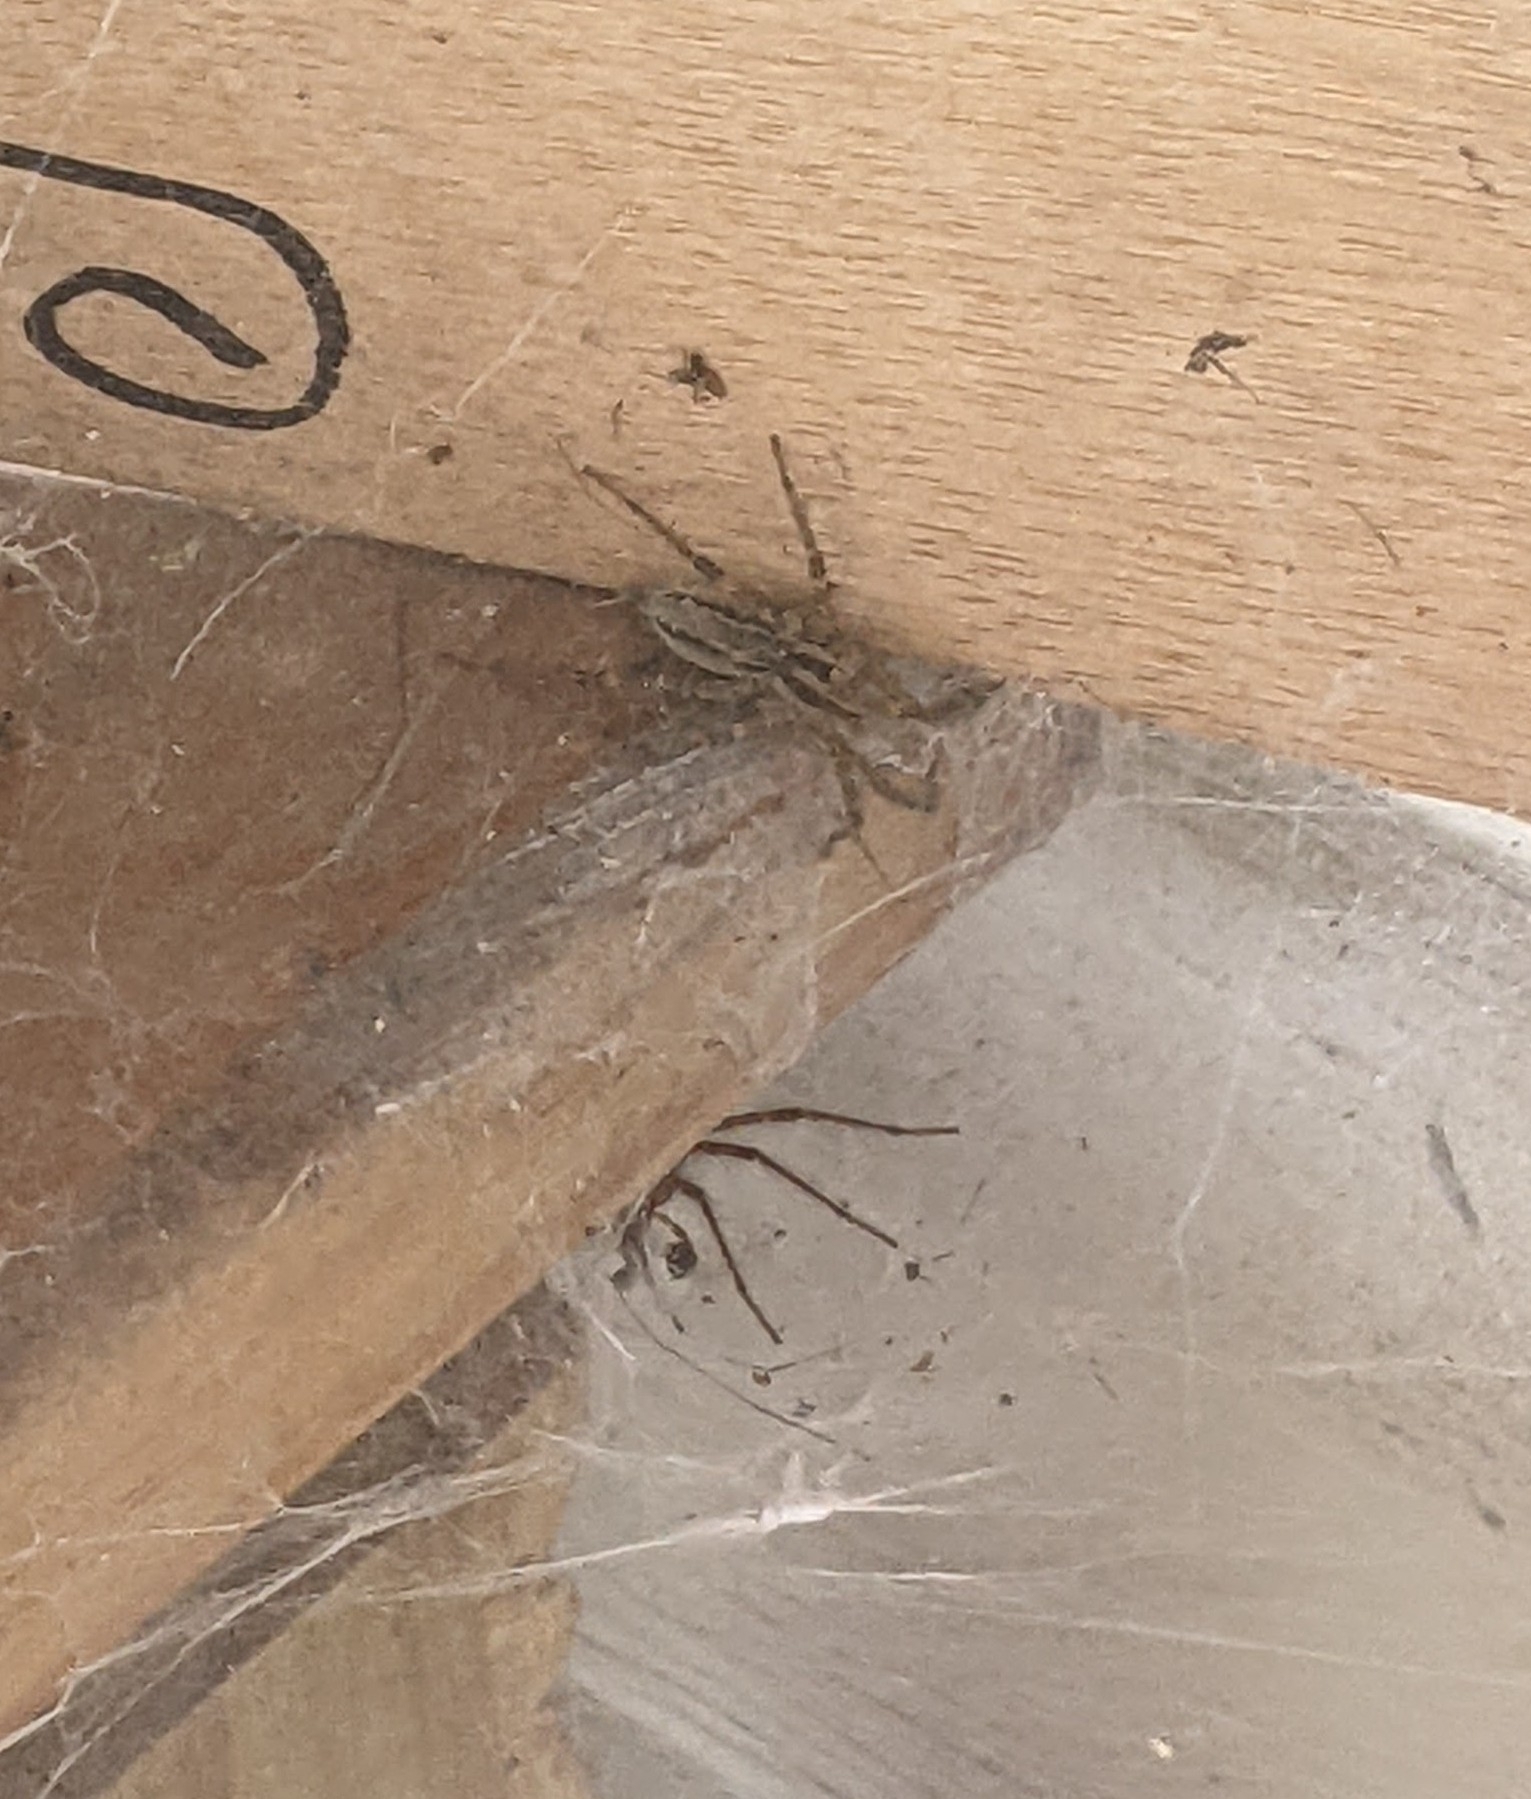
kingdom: Animalia
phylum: Arthropoda
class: Arachnida
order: Araneae
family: Agelenidae
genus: Agelenopsis
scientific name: Agelenopsis
